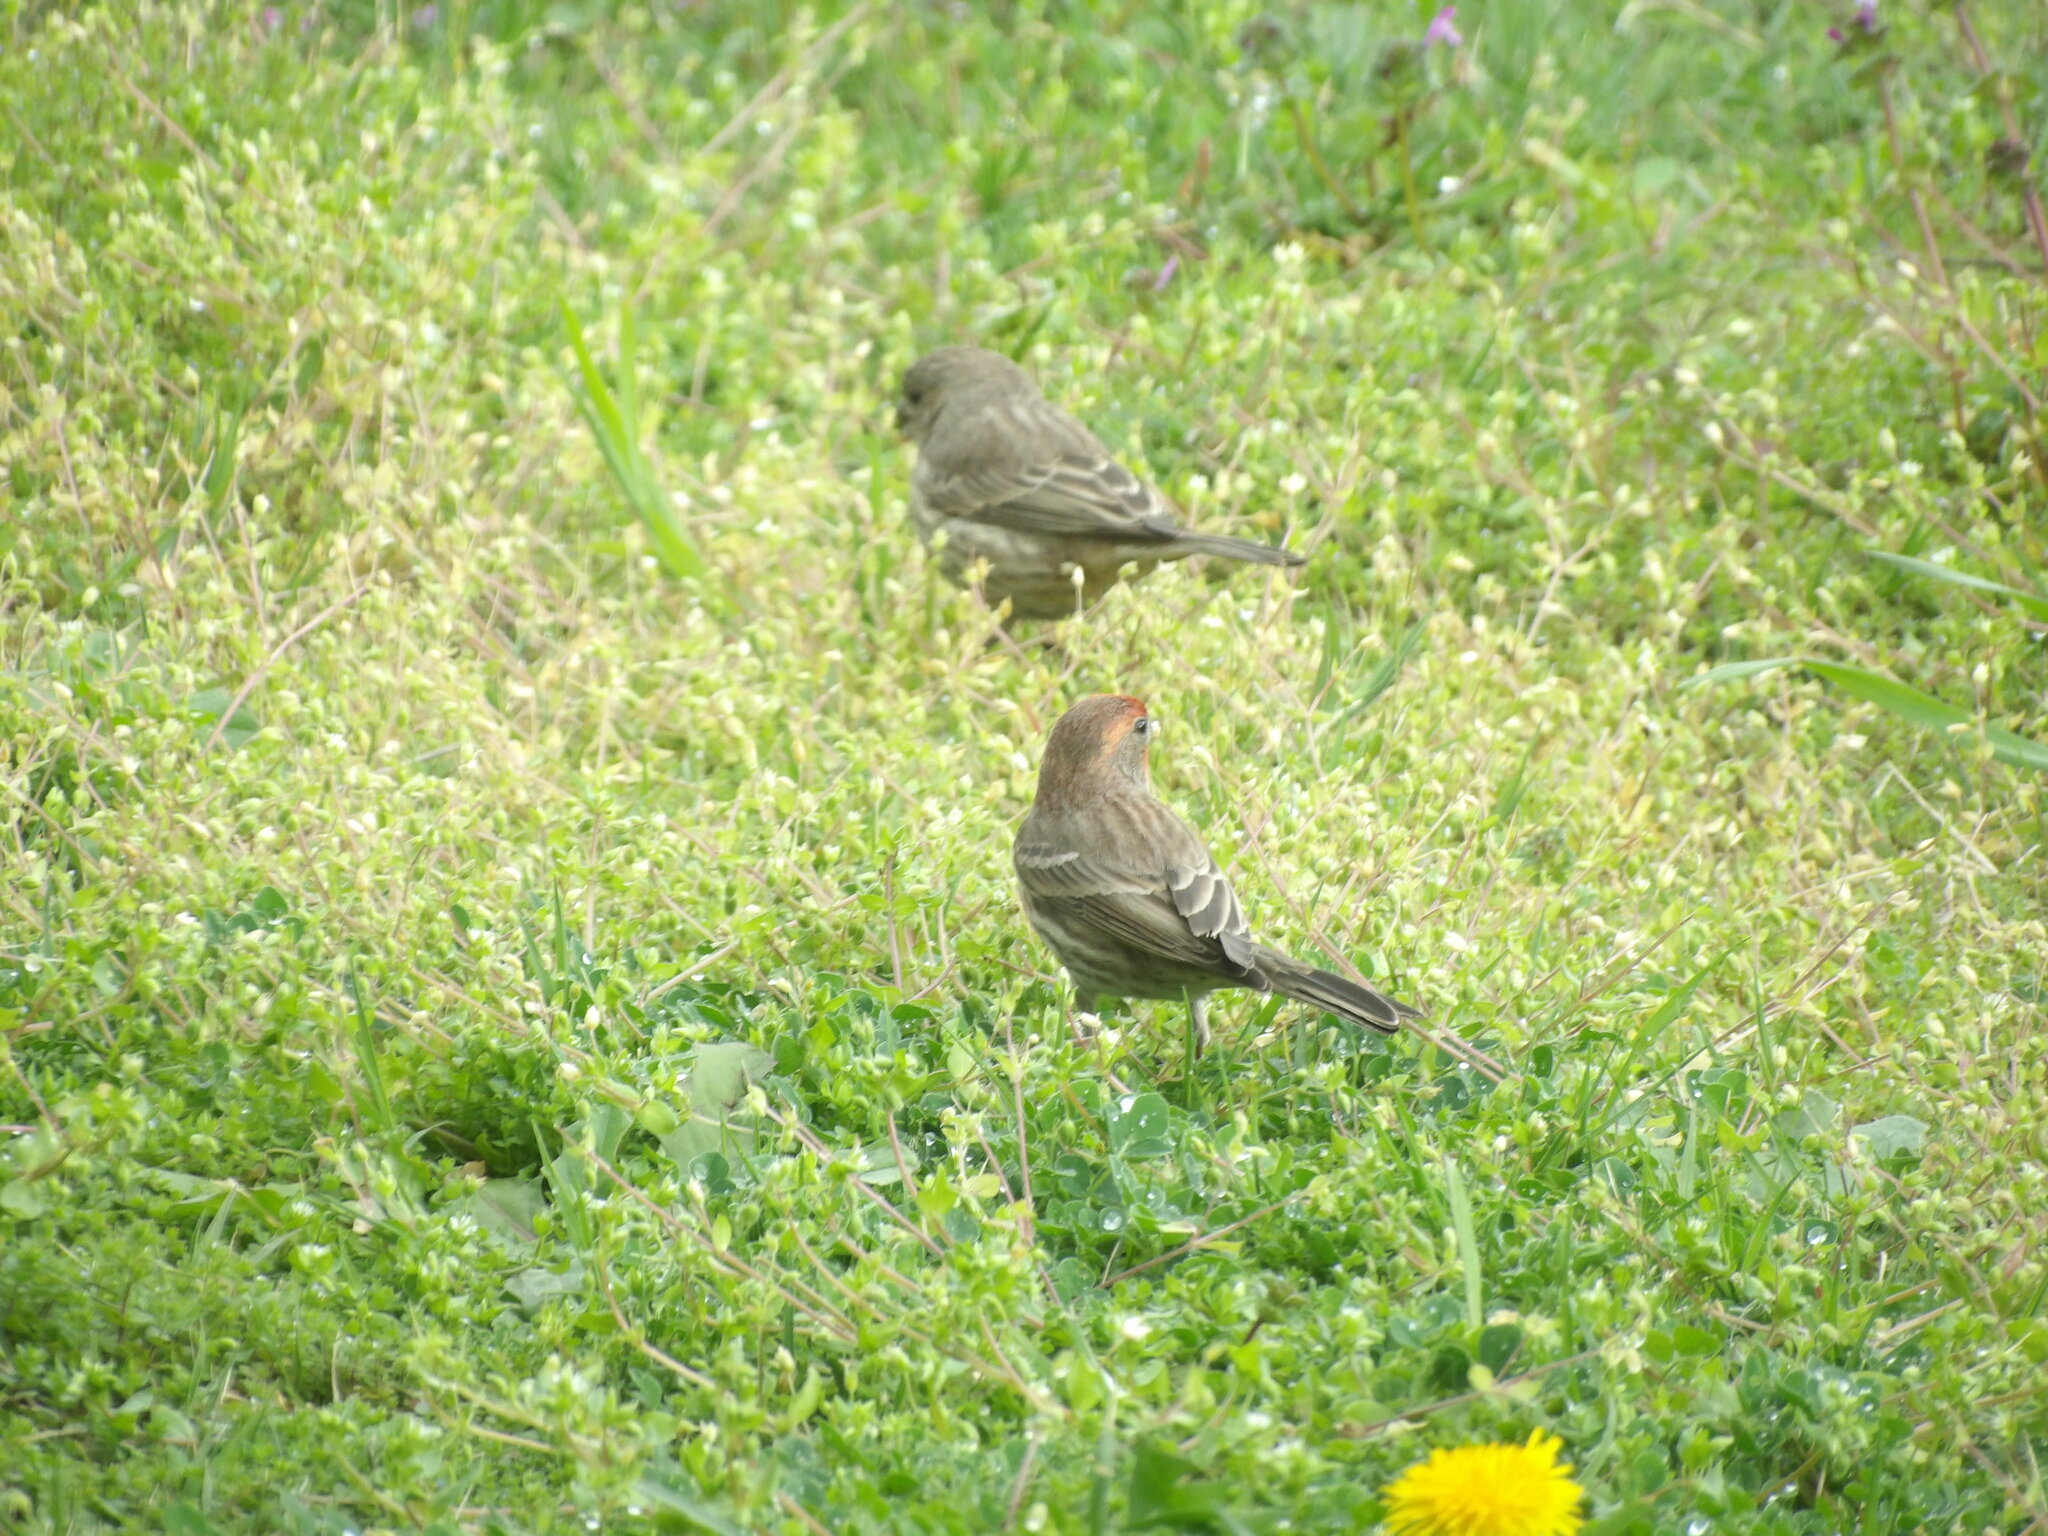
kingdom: Animalia
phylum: Chordata
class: Aves
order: Passeriformes
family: Fringillidae
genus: Haemorhous
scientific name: Haemorhous mexicanus
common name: House finch
